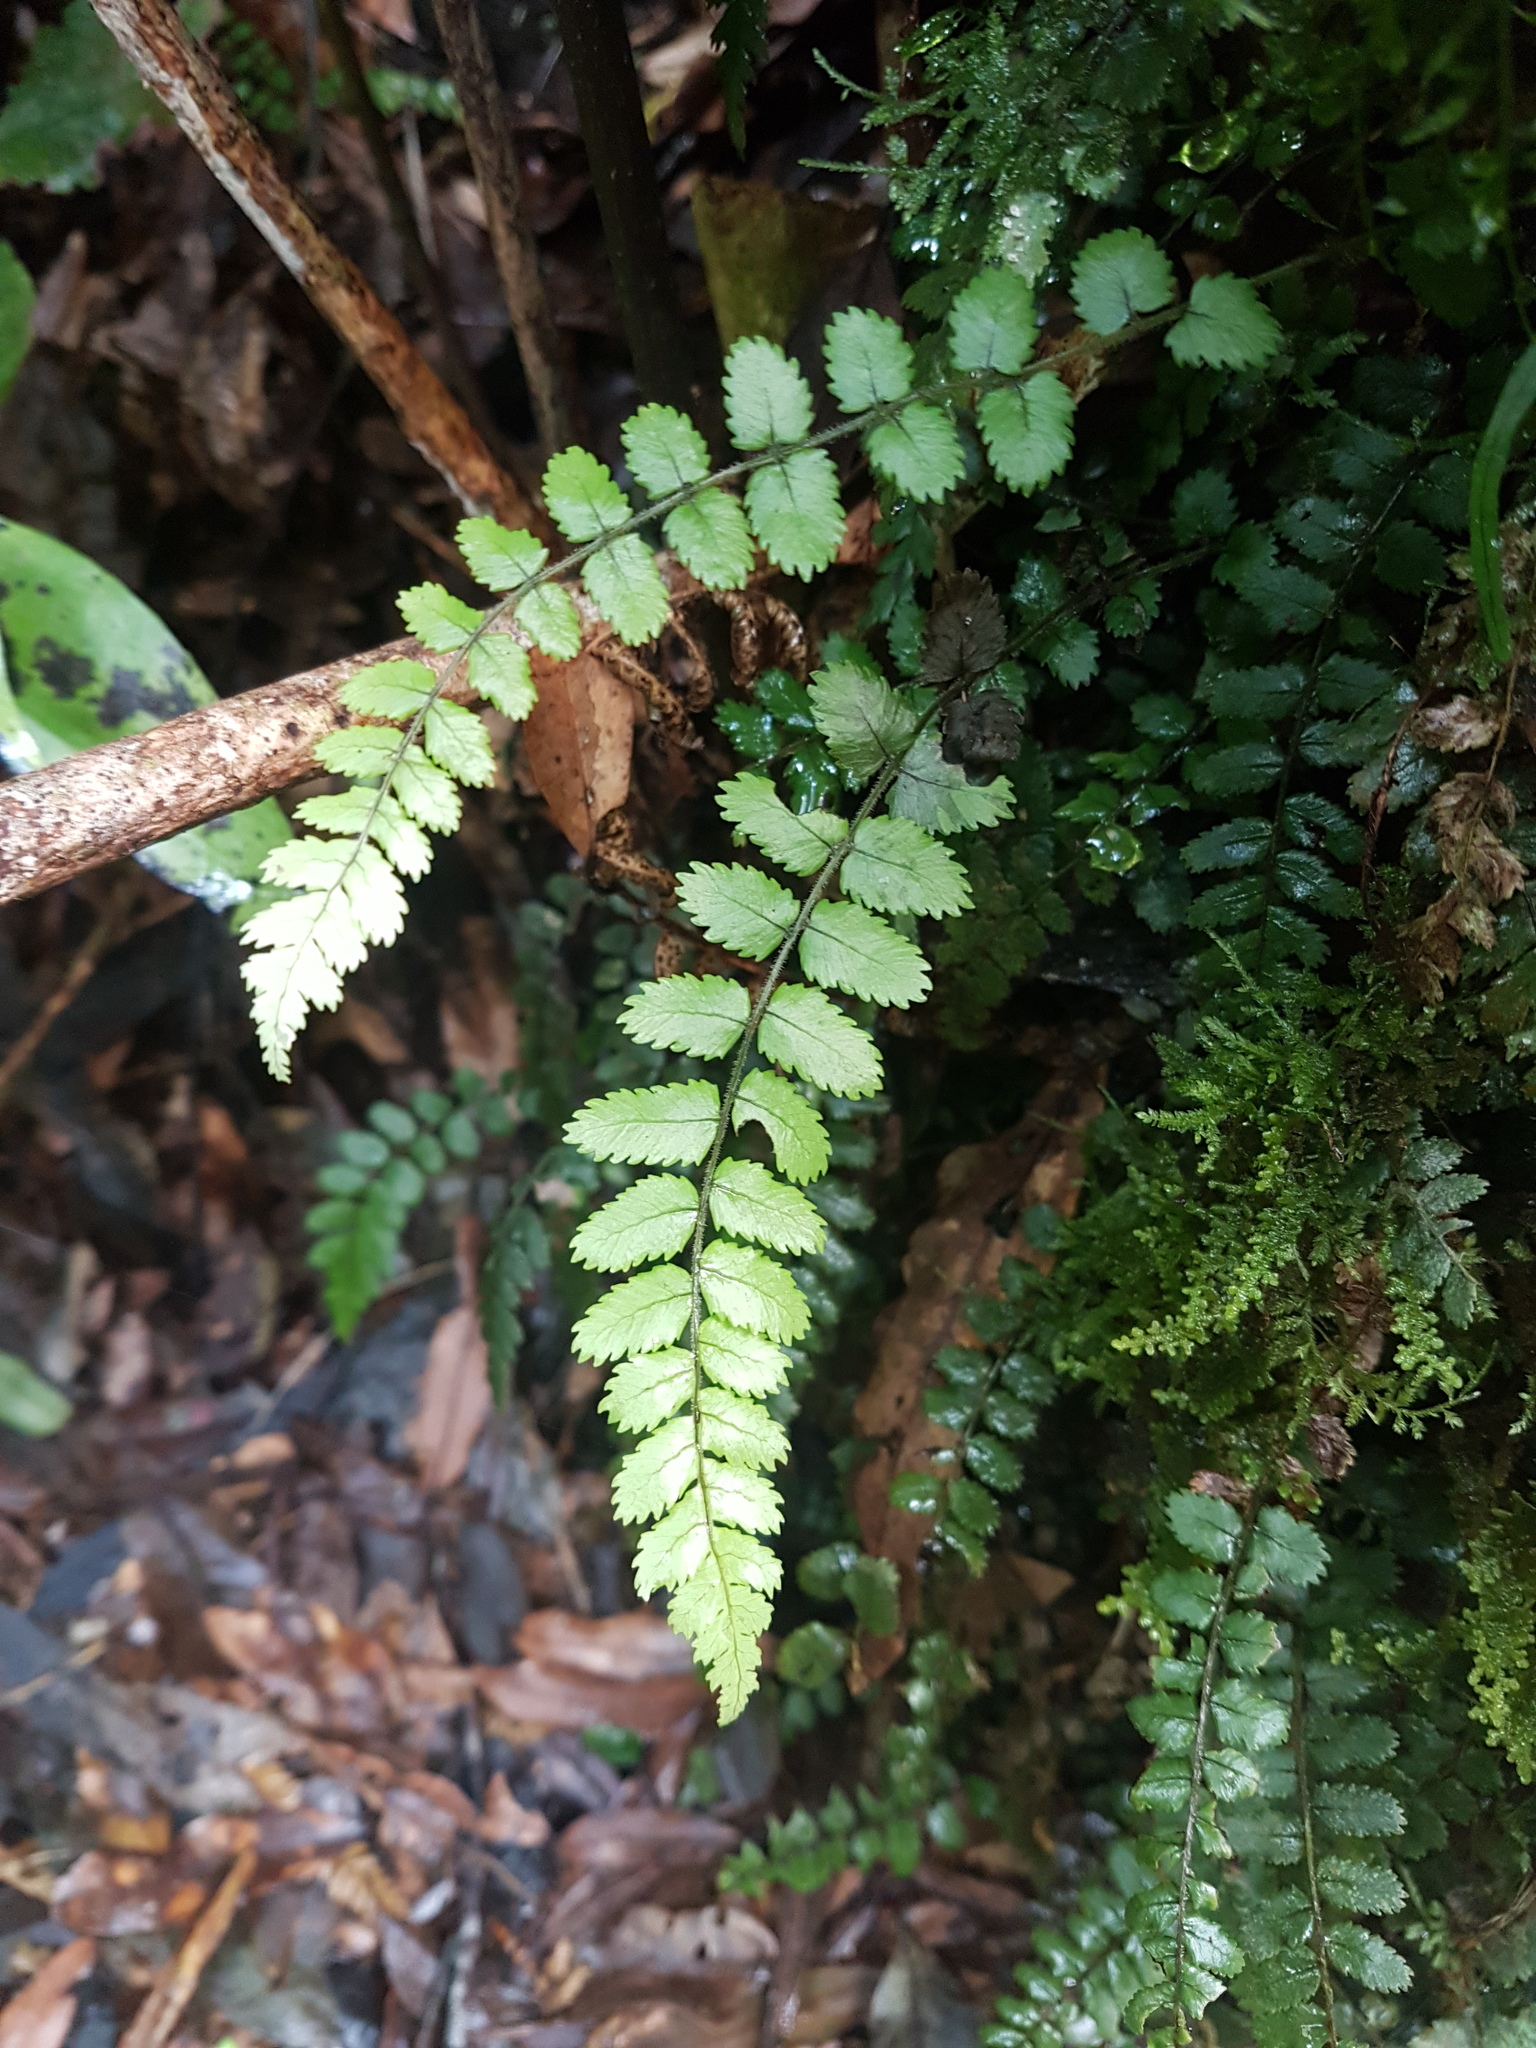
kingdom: Plantae
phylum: Tracheophyta
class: Polypodiopsida
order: Polypodiales
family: Blechnaceae
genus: Icarus
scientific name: Icarus filiformis
